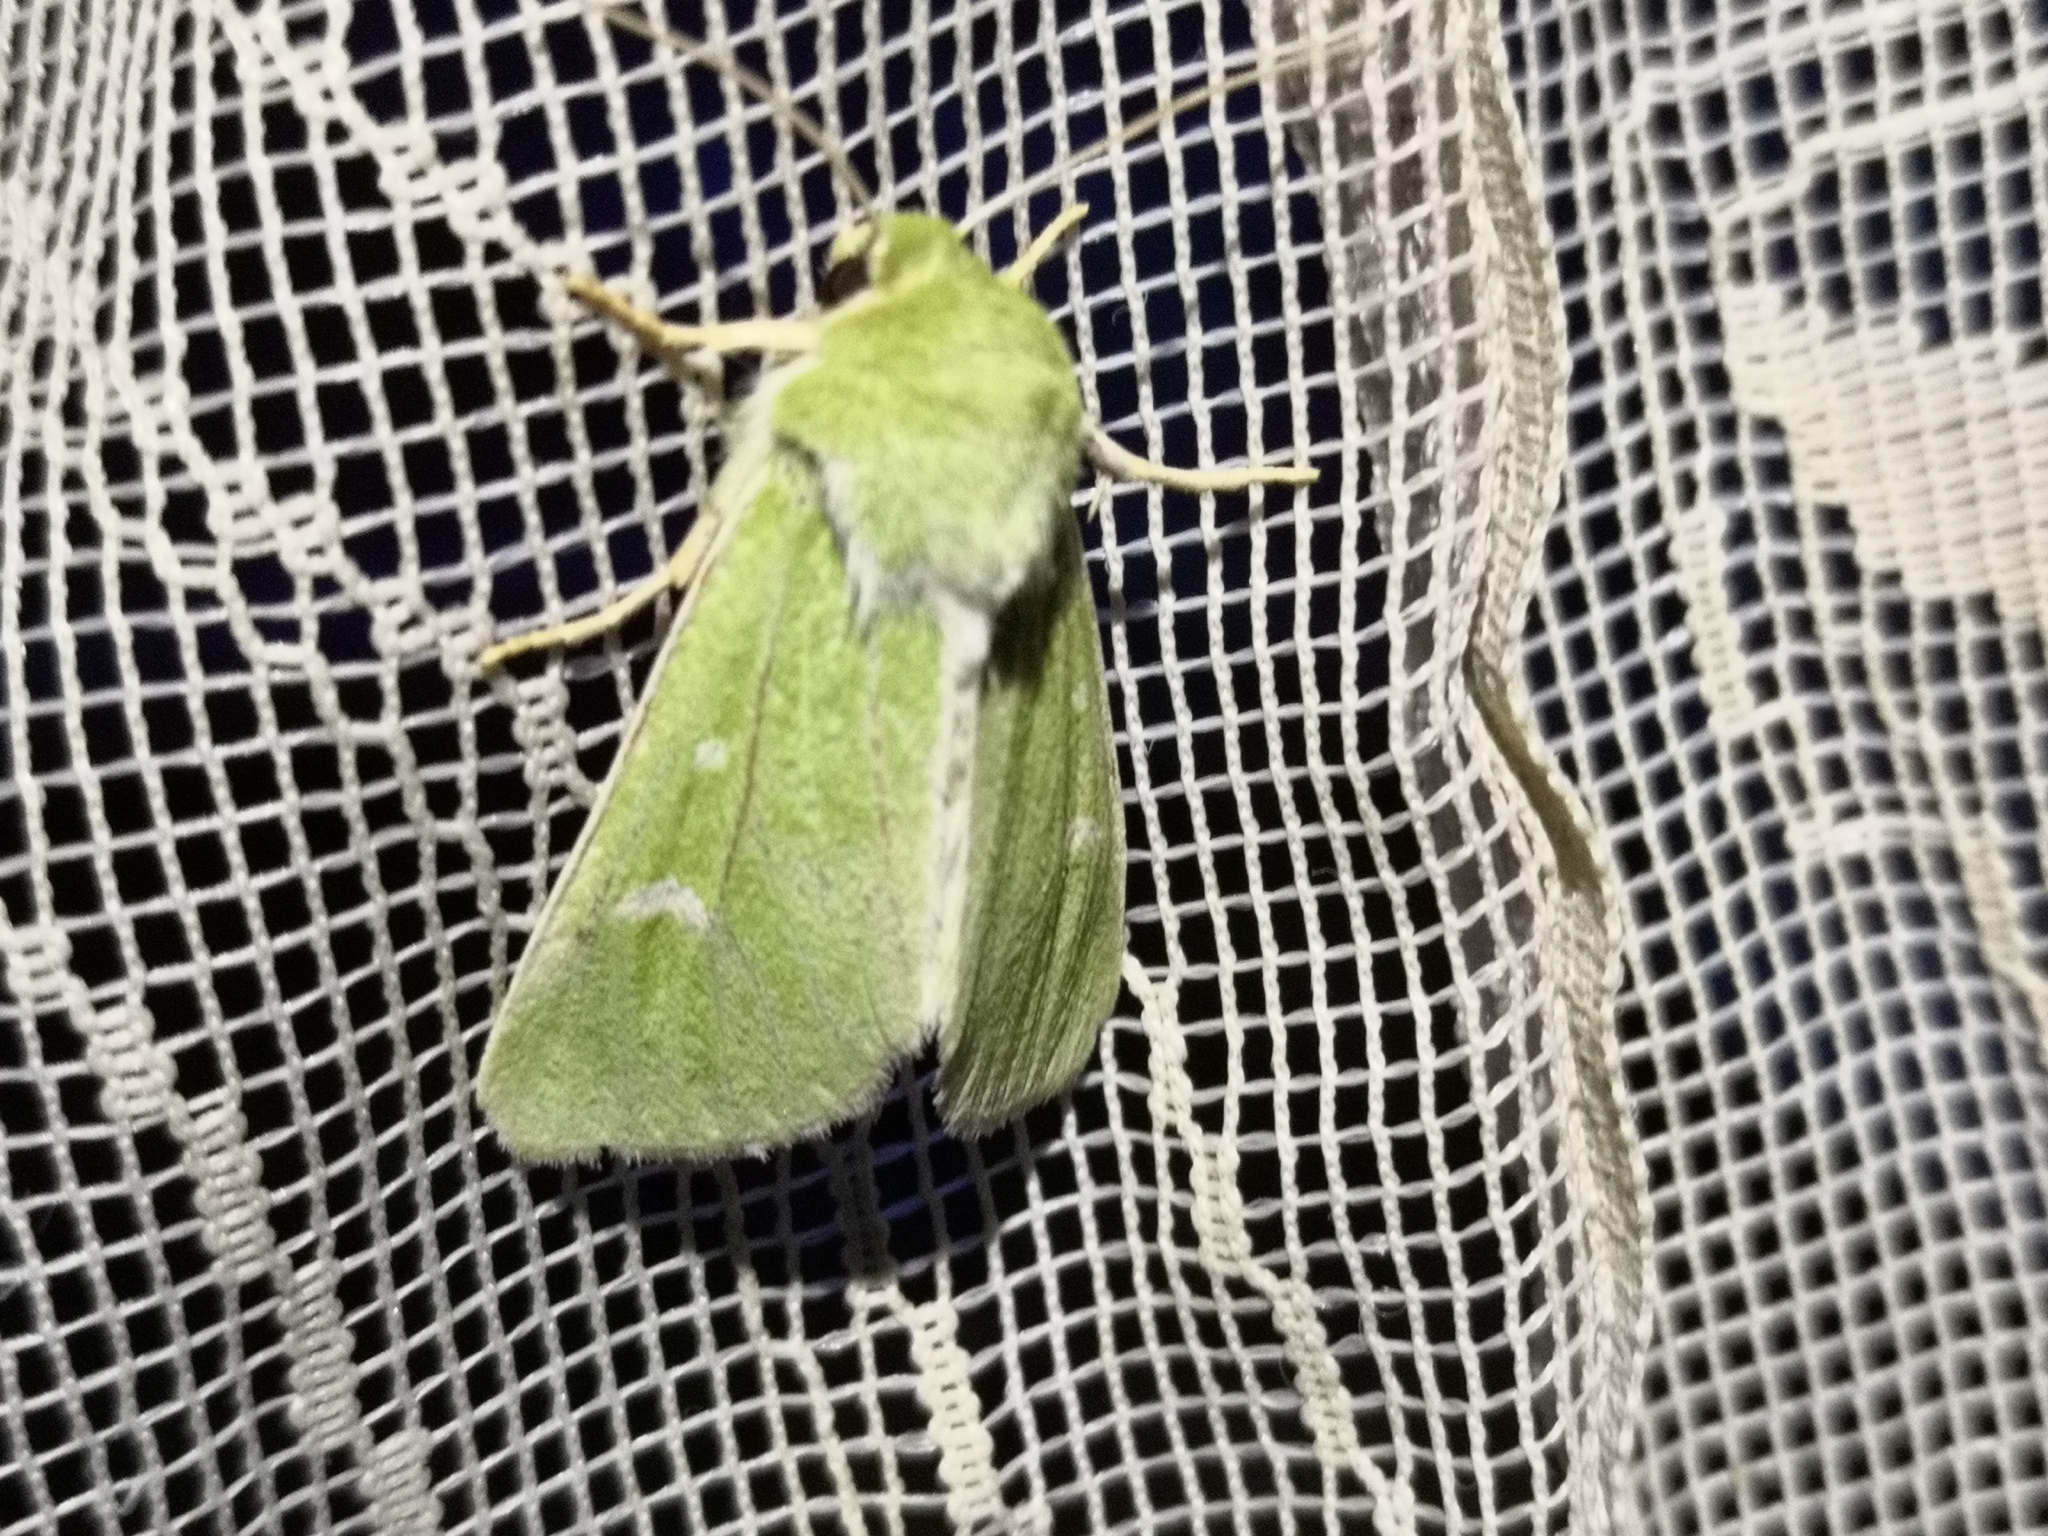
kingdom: Animalia
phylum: Arthropoda
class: Insecta
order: Lepidoptera
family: Noctuidae
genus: Calamia
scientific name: Calamia tridens
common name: Burren green
